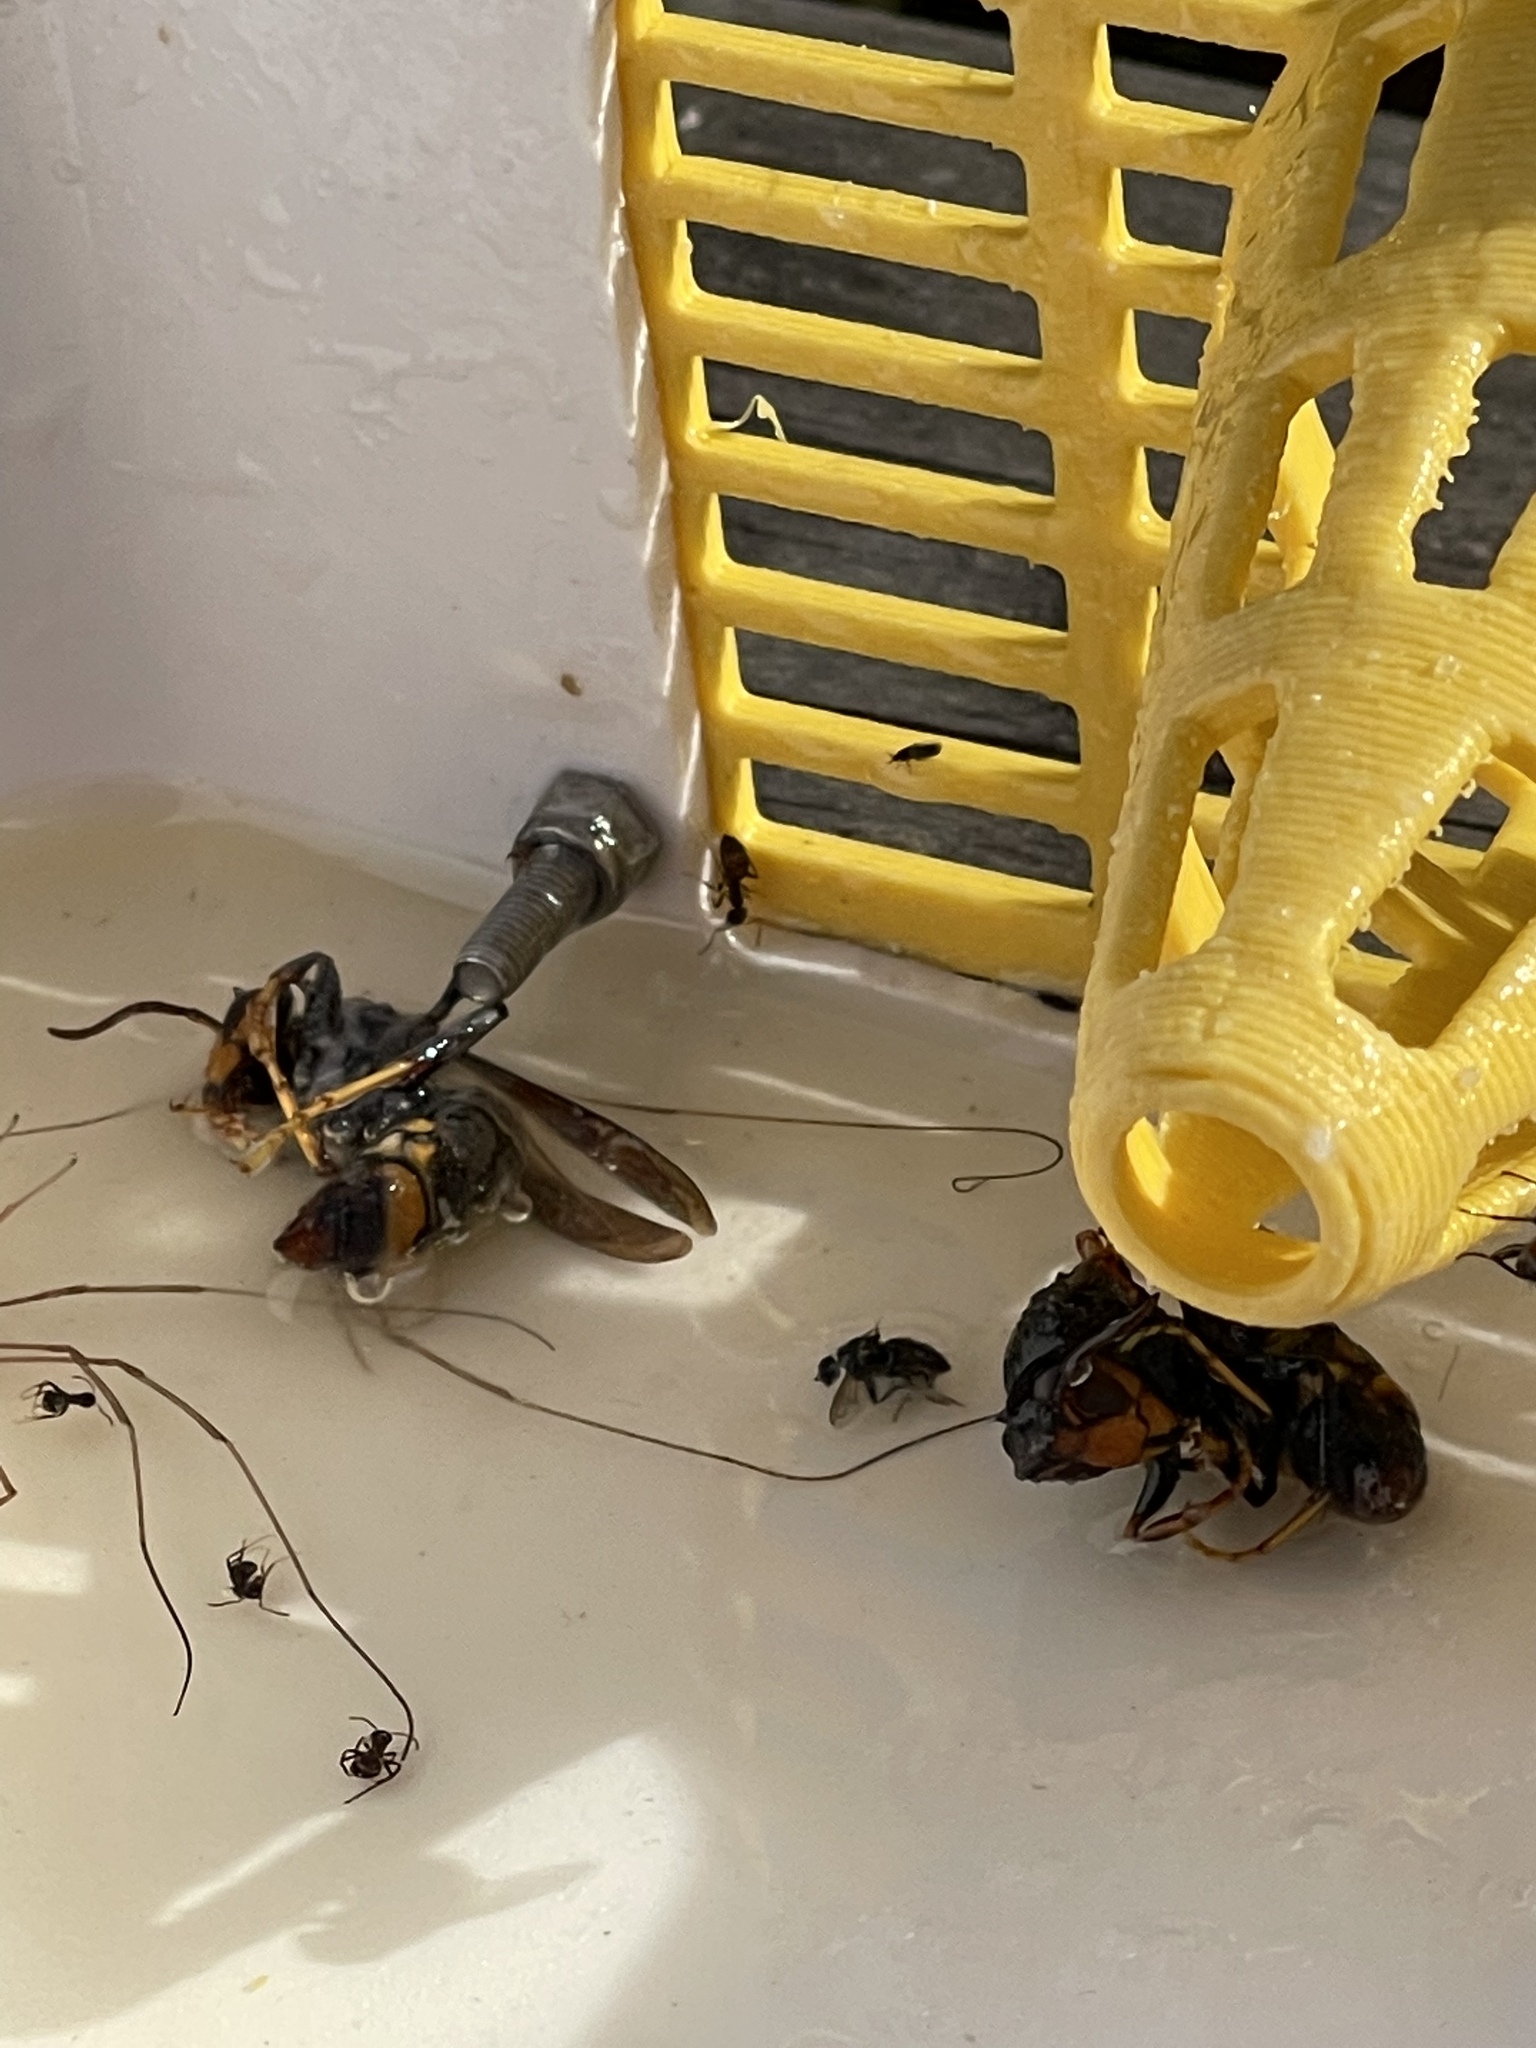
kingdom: Animalia
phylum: Arthropoda
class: Insecta
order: Hymenoptera
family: Vespidae
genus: Vespa
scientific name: Vespa velutina
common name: Asian hornet
